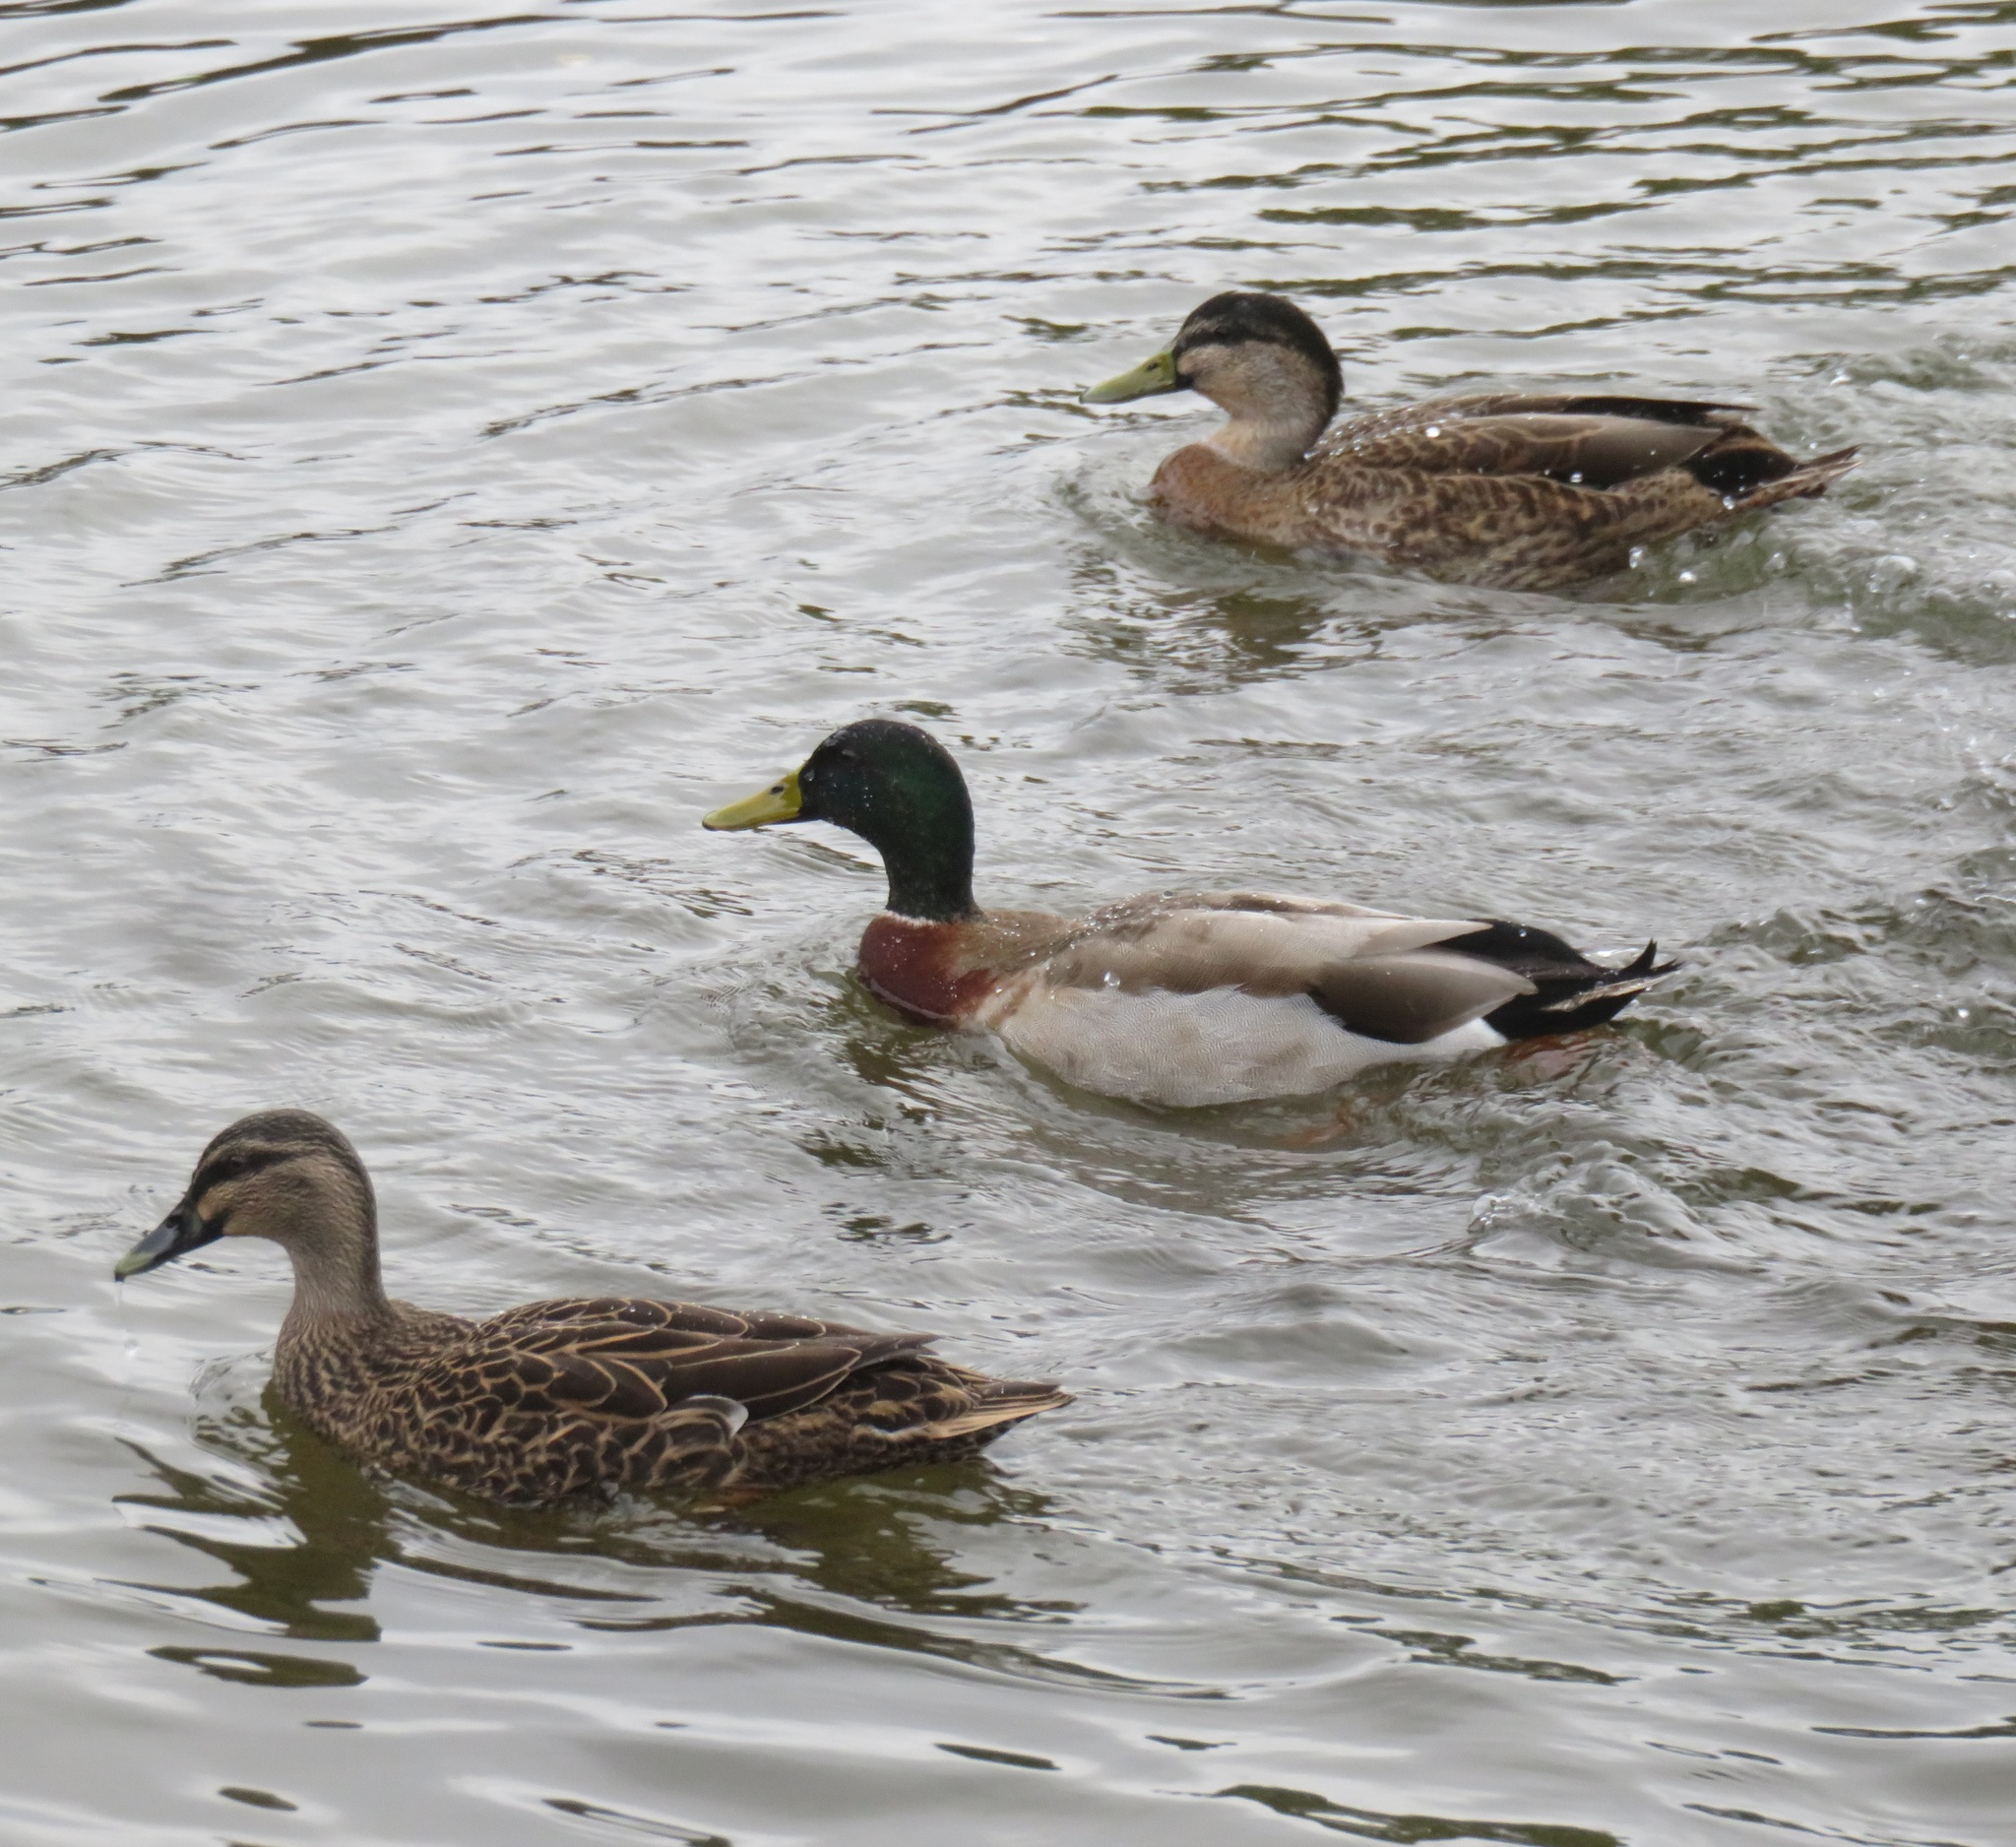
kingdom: Animalia
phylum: Chordata
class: Aves
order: Anseriformes
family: Anatidae
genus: Anas
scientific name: Anas platyrhynchos
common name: Mallard
